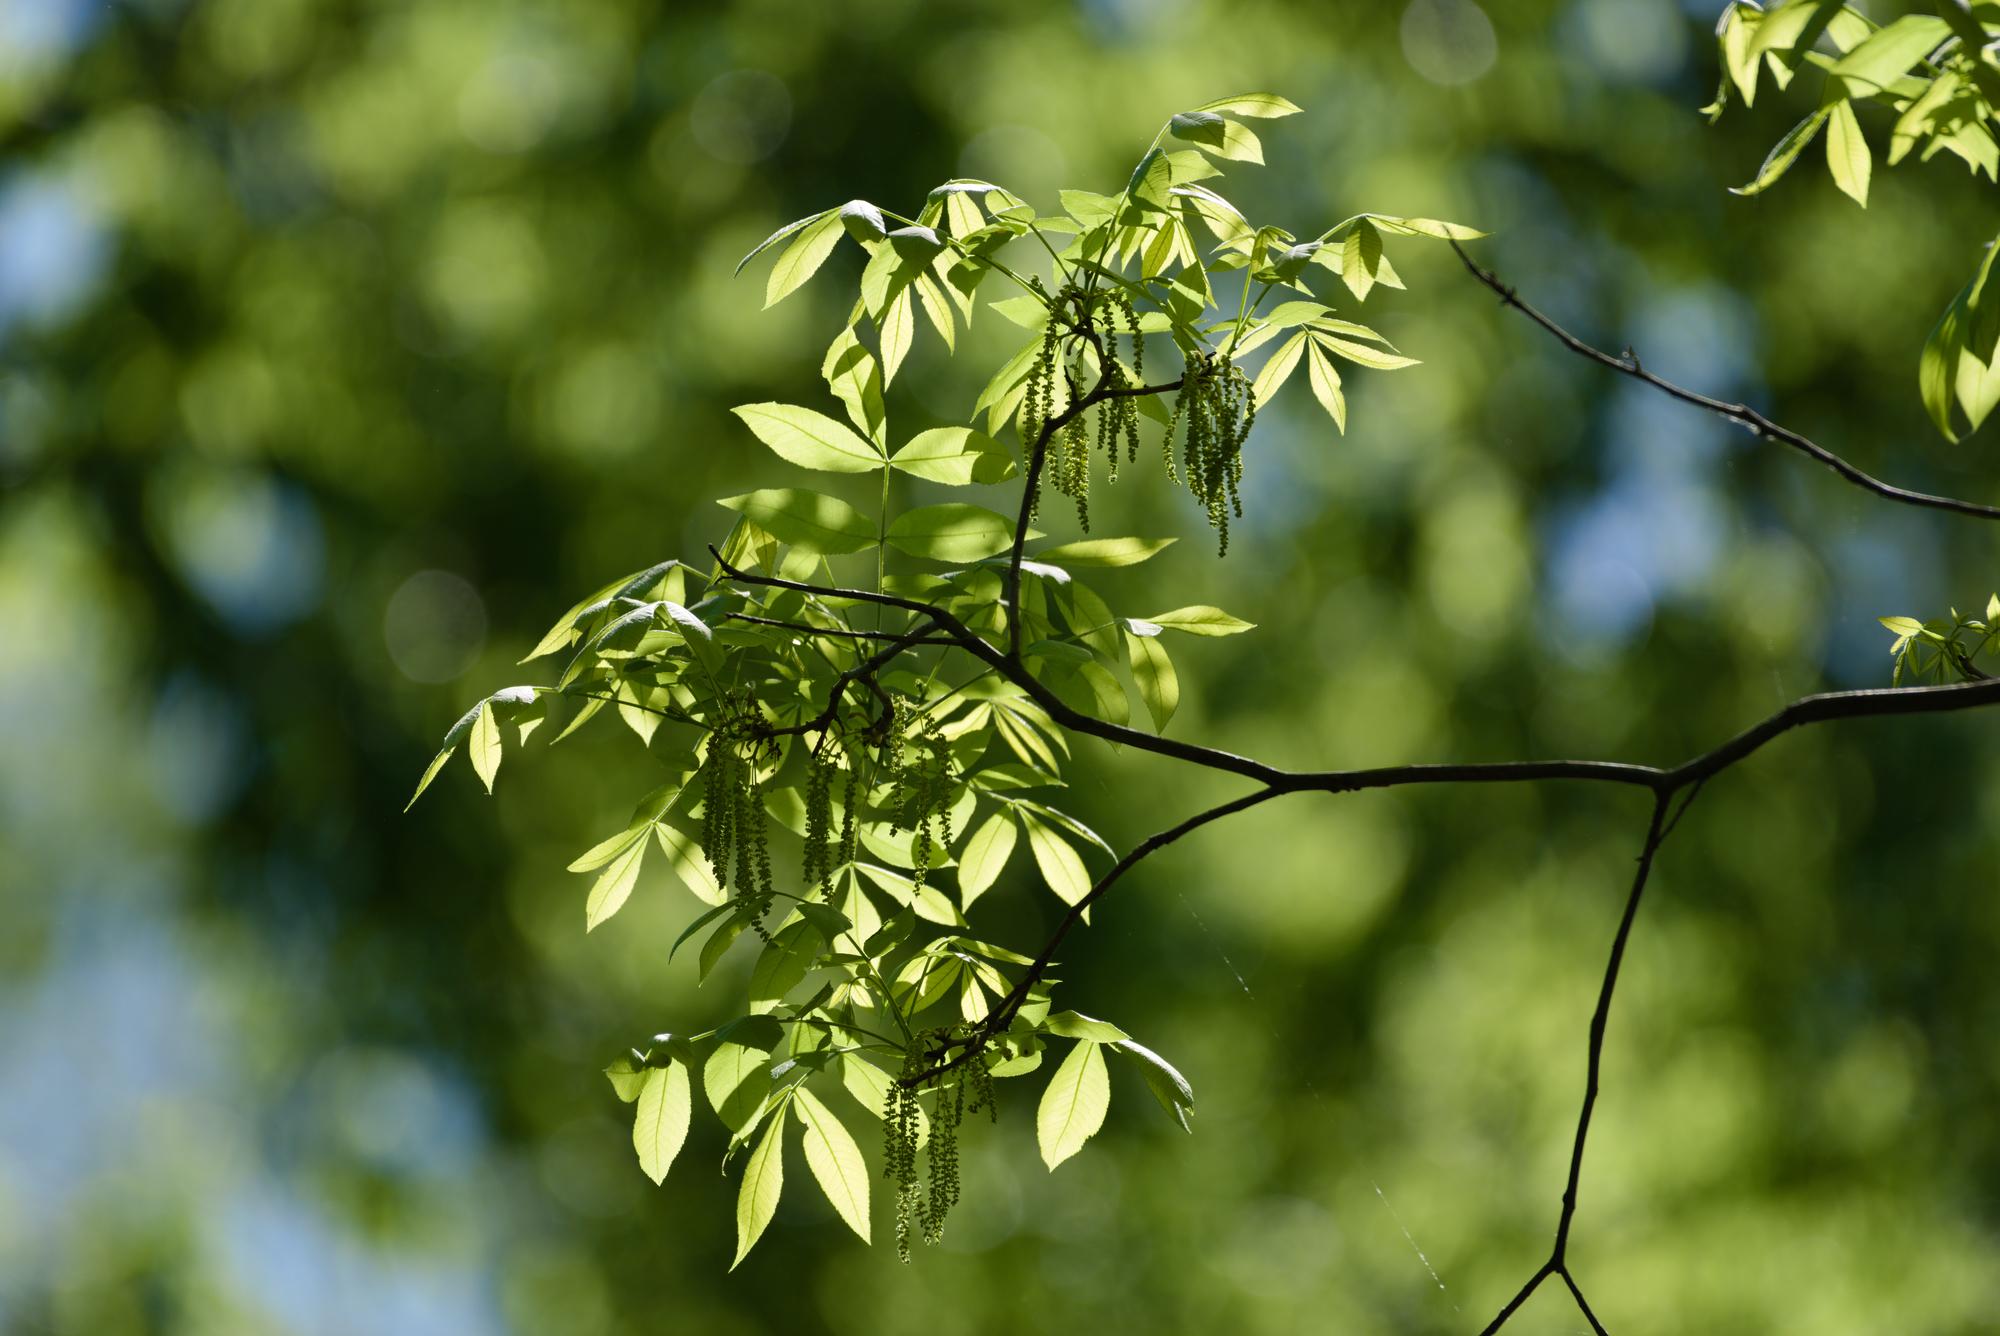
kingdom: Plantae
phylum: Tracheophyta
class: Magnoliopsida
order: Fagales
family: Juglandaceae
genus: Carya
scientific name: Carya cordiformis
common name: Bitternut hickory
